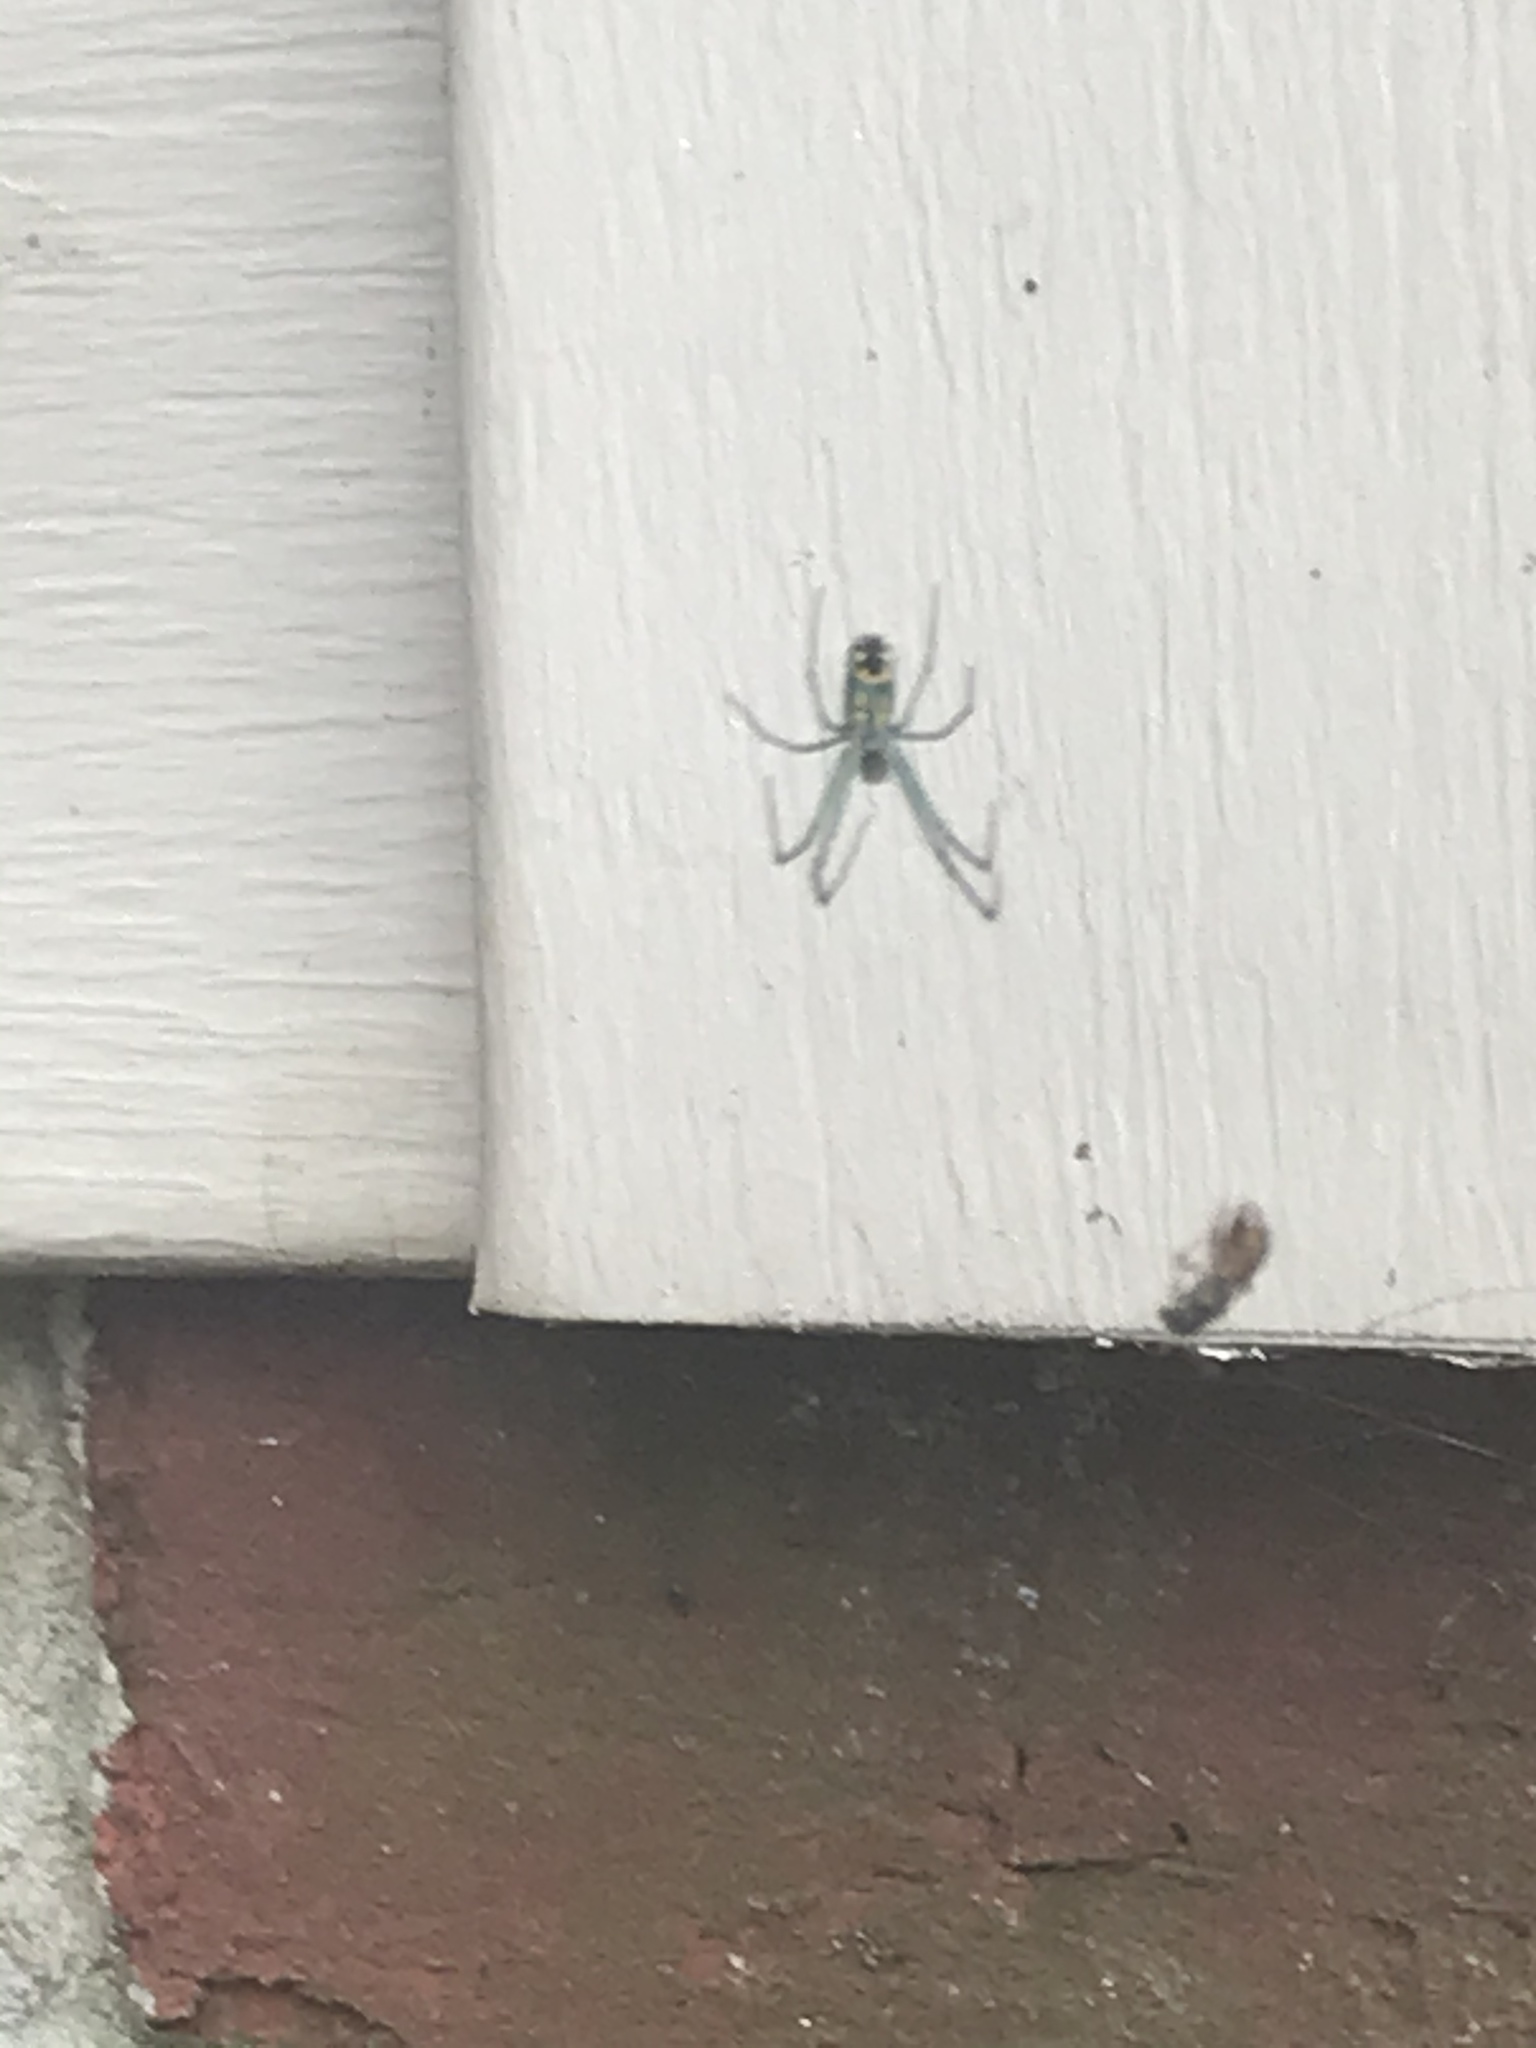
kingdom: Animalia
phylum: Arthropoda
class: Arachnida
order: Araneae
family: Tetragnathidae
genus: Leucauge
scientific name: Leucauge venusta
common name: Longjawed orb weavers
